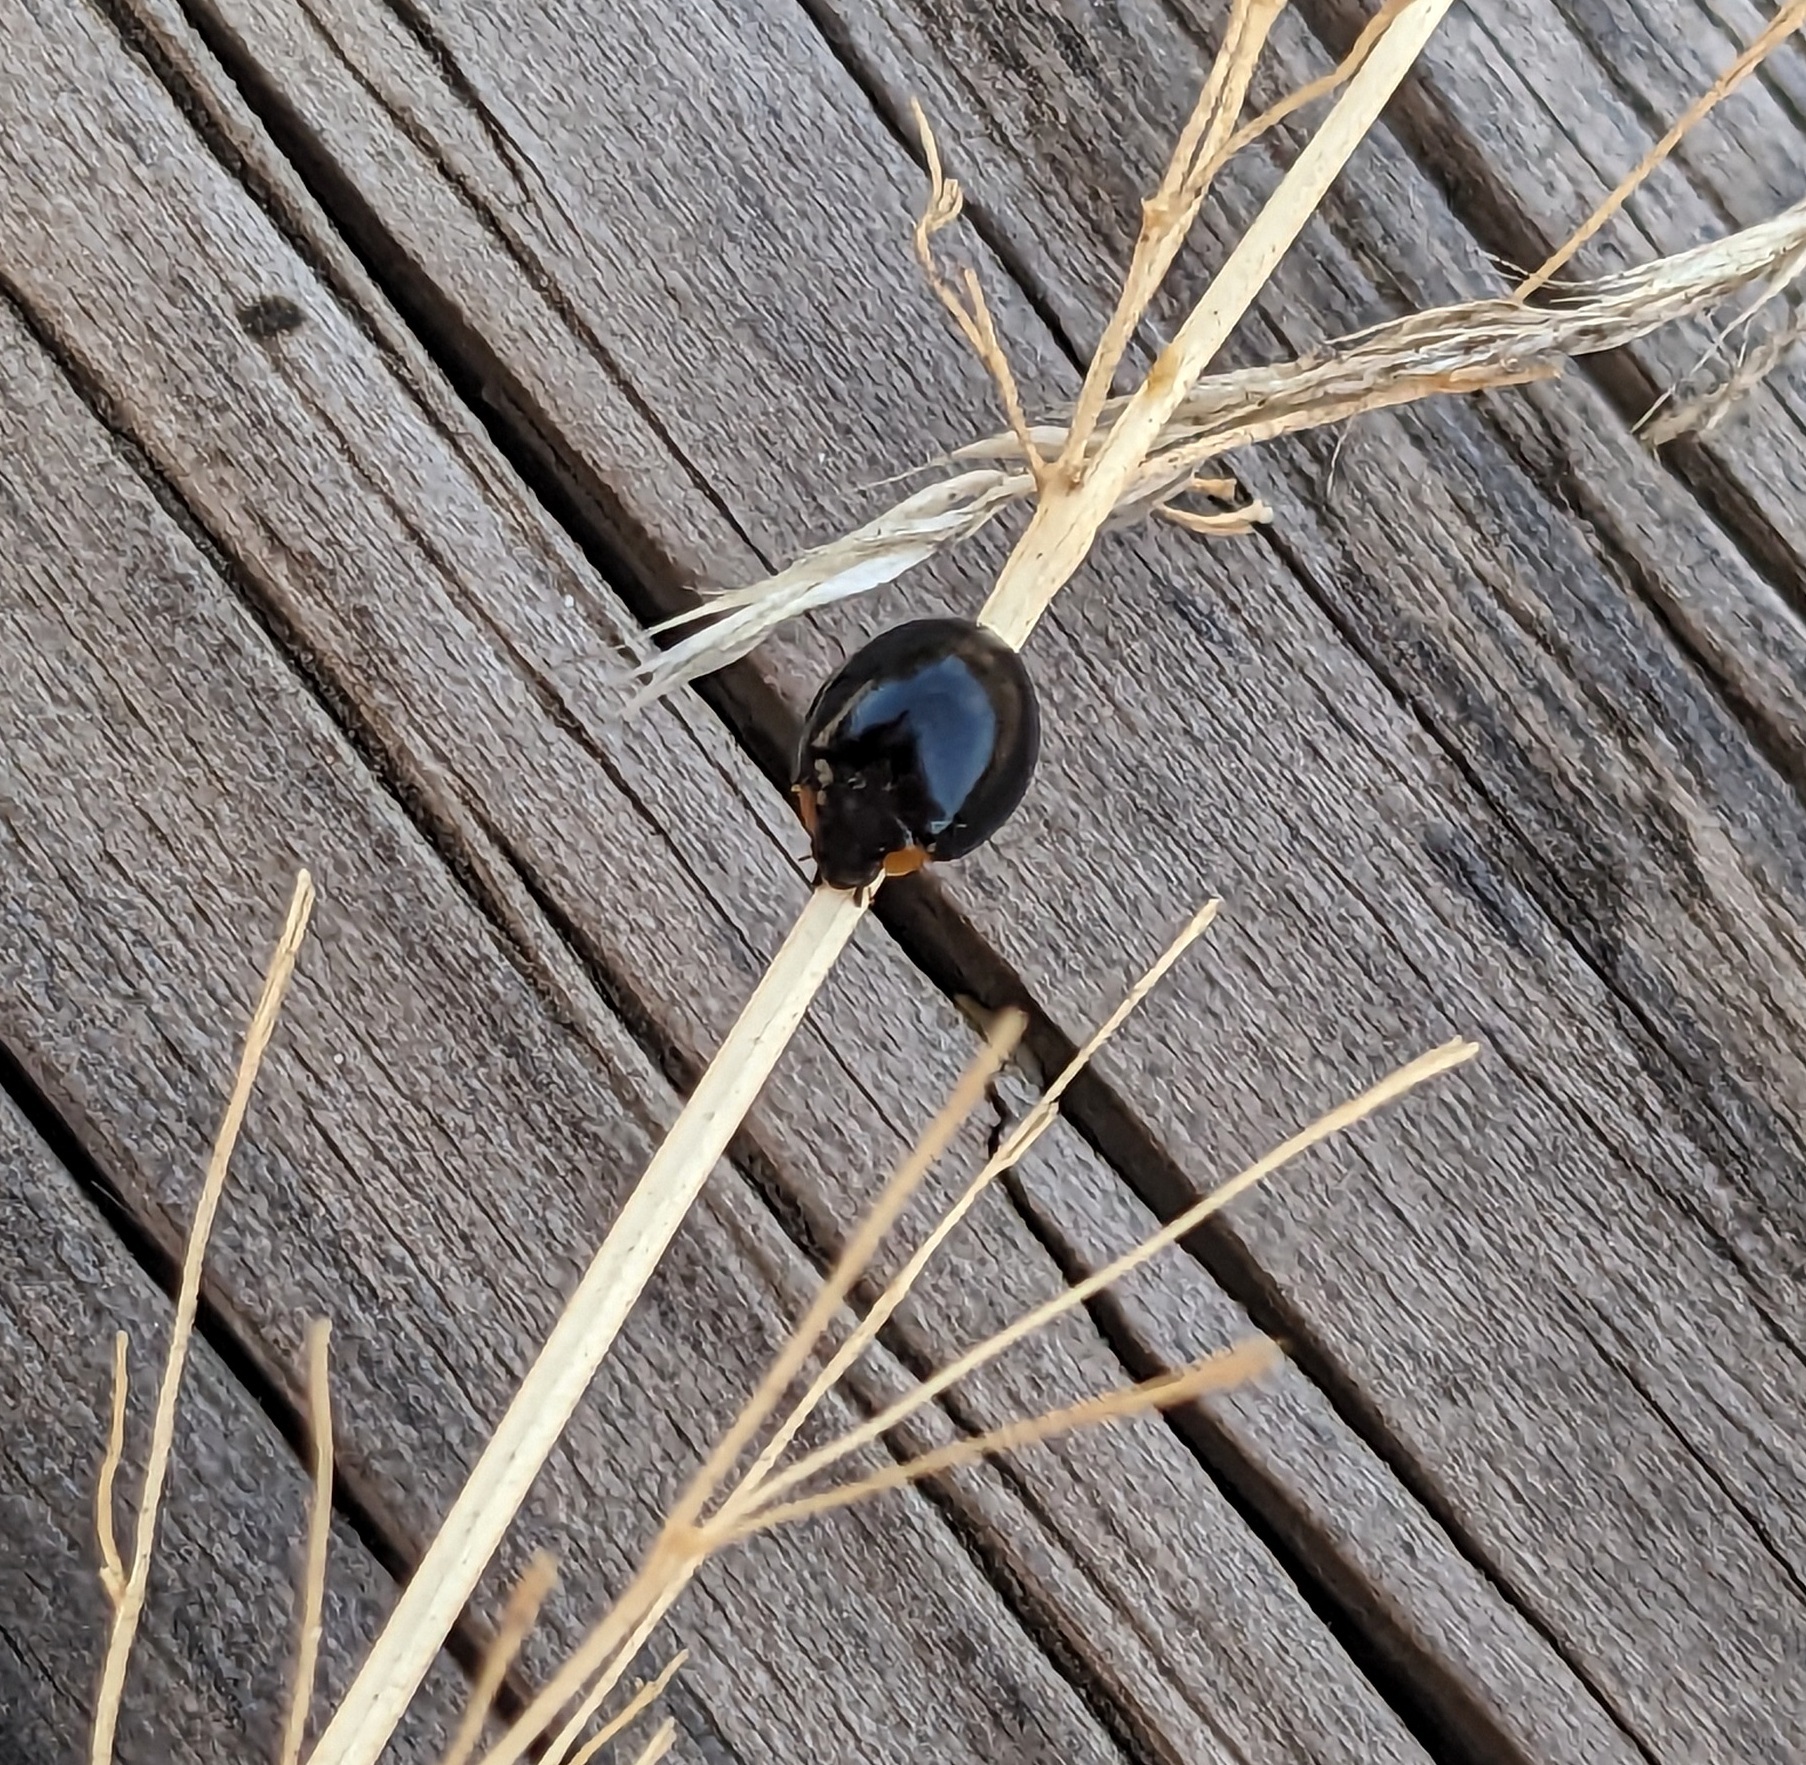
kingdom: Animalia
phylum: Arthropoda
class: Insecta
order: Coleoptera
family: Coccinellidae
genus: Parexochomus
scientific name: Parexochomus nigromaculatus
